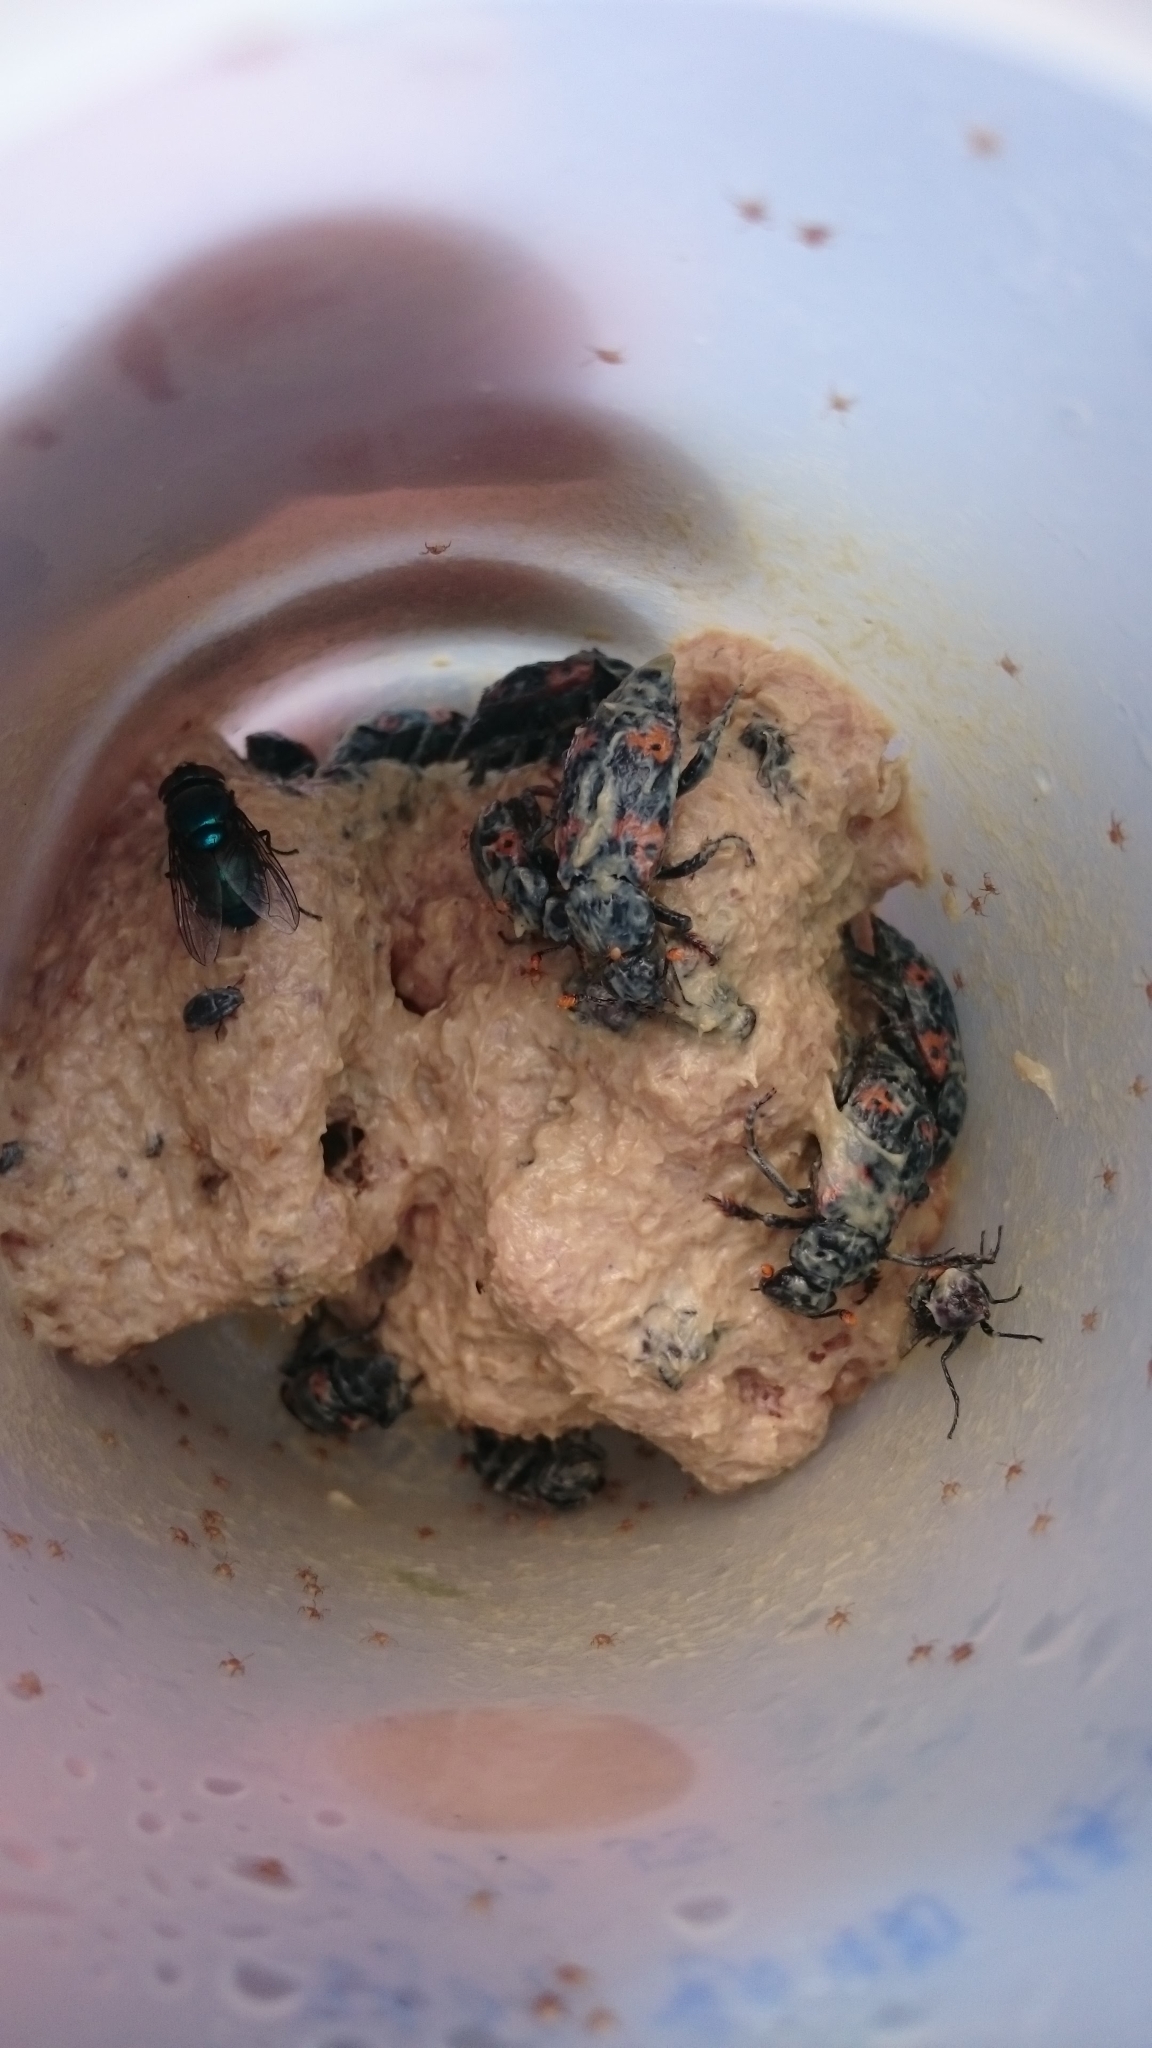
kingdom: Animalia
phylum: Arthropoda
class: Insecta
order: Coleoptera
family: Staphylinidae
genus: Nicrophorus
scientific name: Nicrophorus nepalensis
